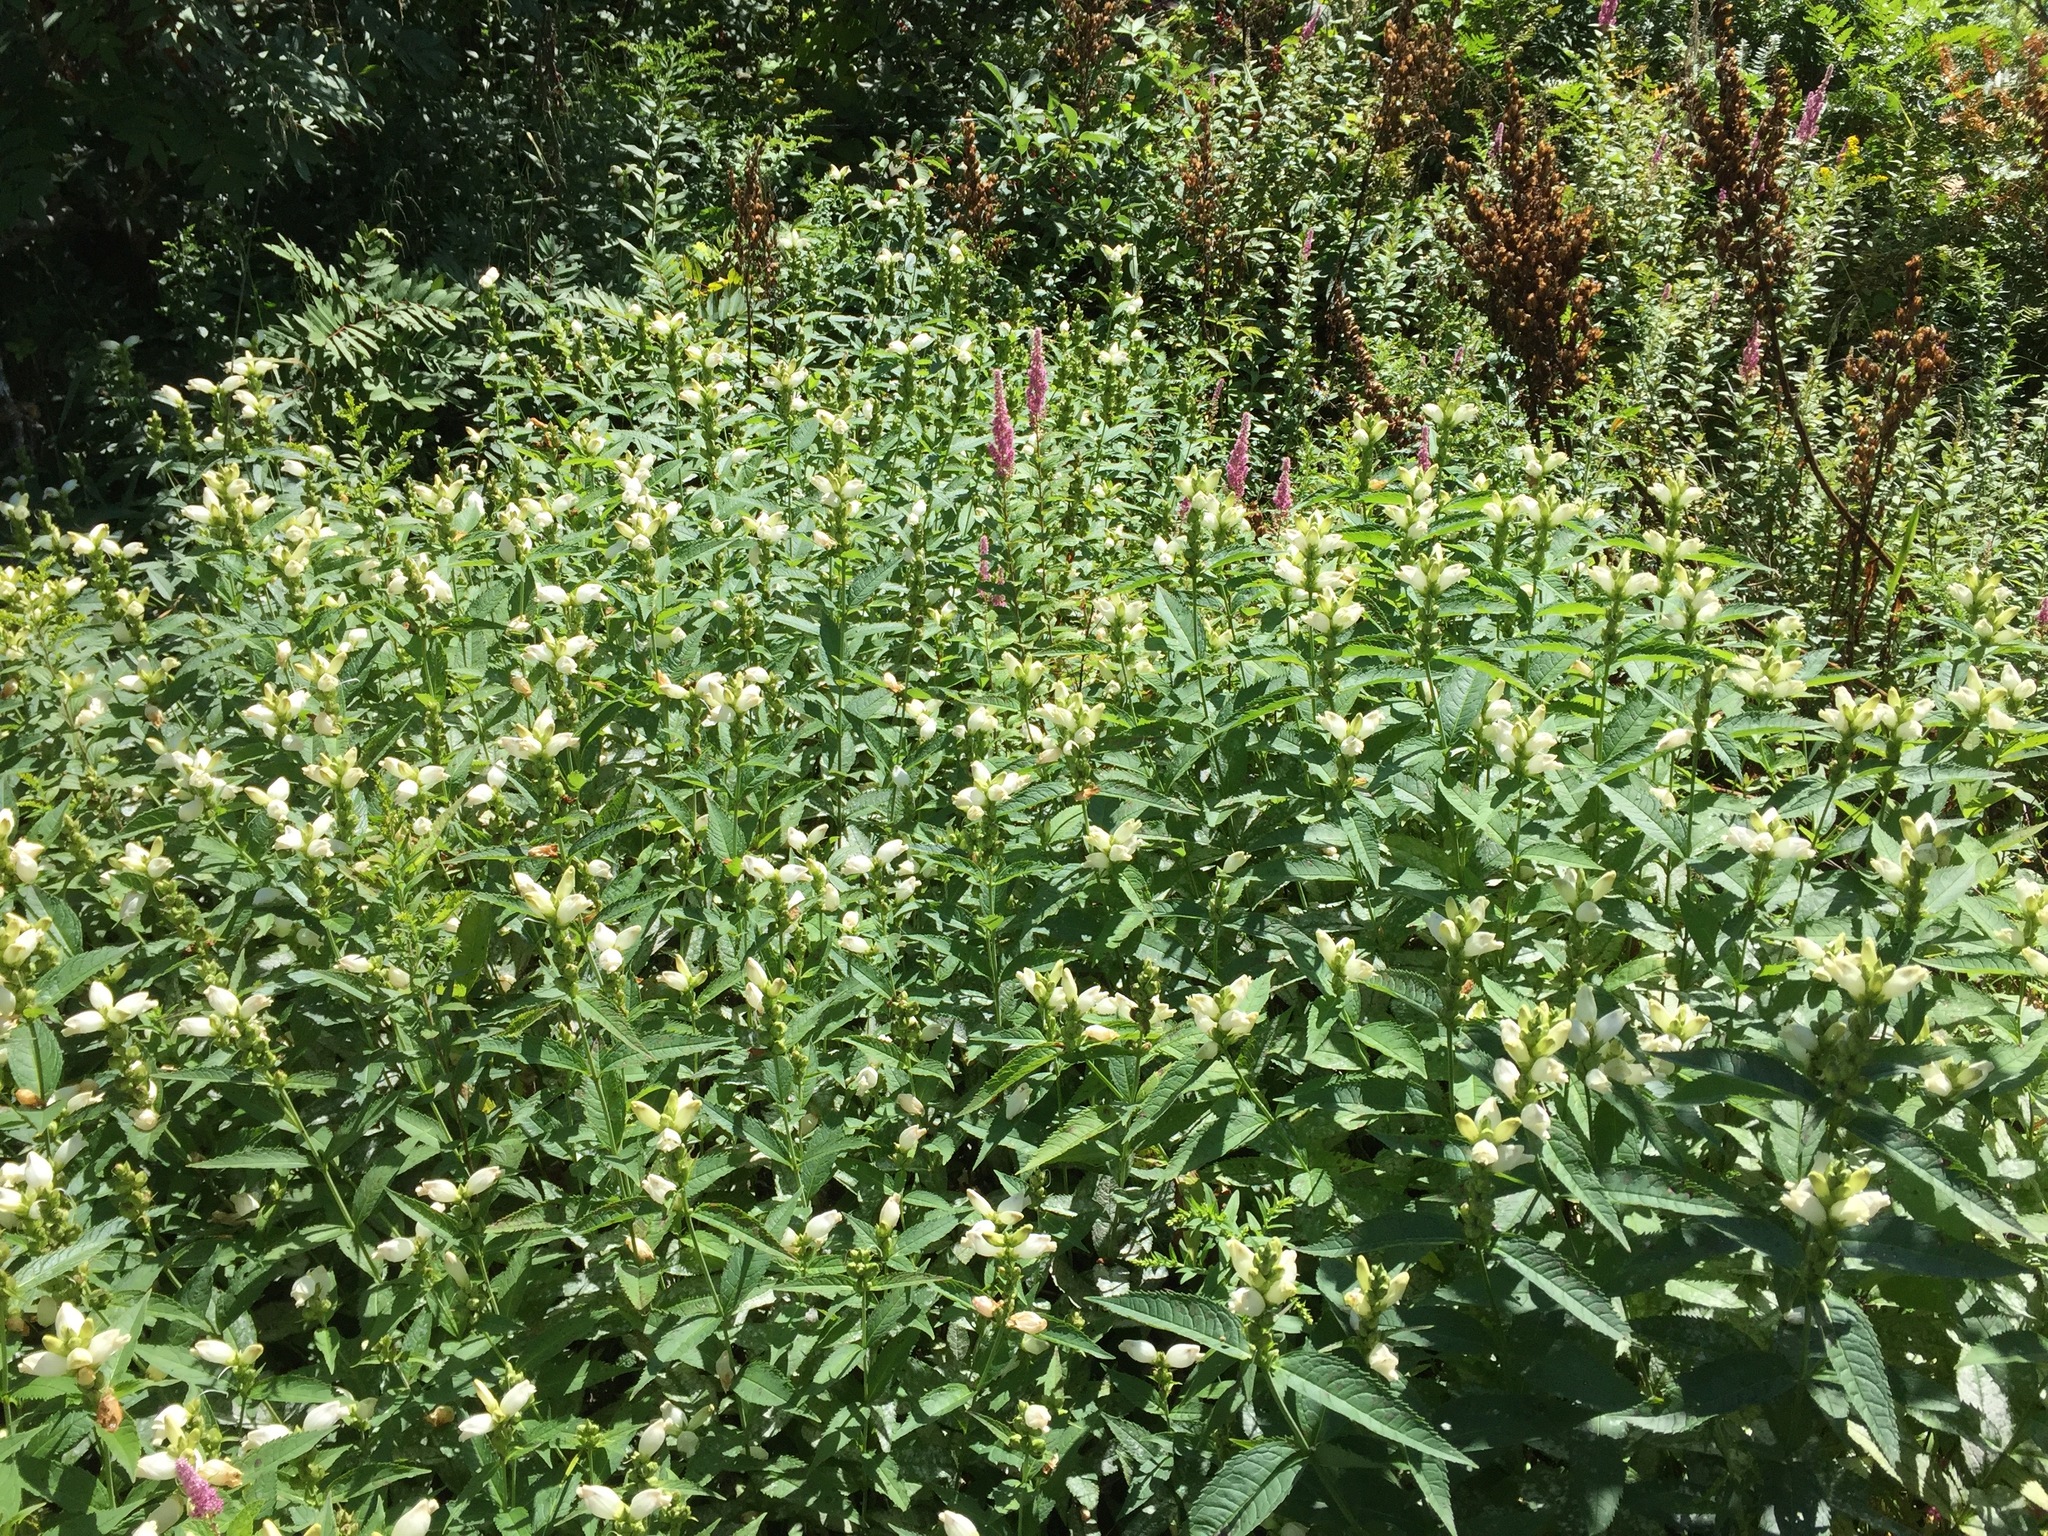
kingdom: Plantae
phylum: Tracheophyta
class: Magnoliopsida
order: Lamiales
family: Plantaginaceae
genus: Chelone
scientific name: Chelone glabra
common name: Snakehead
